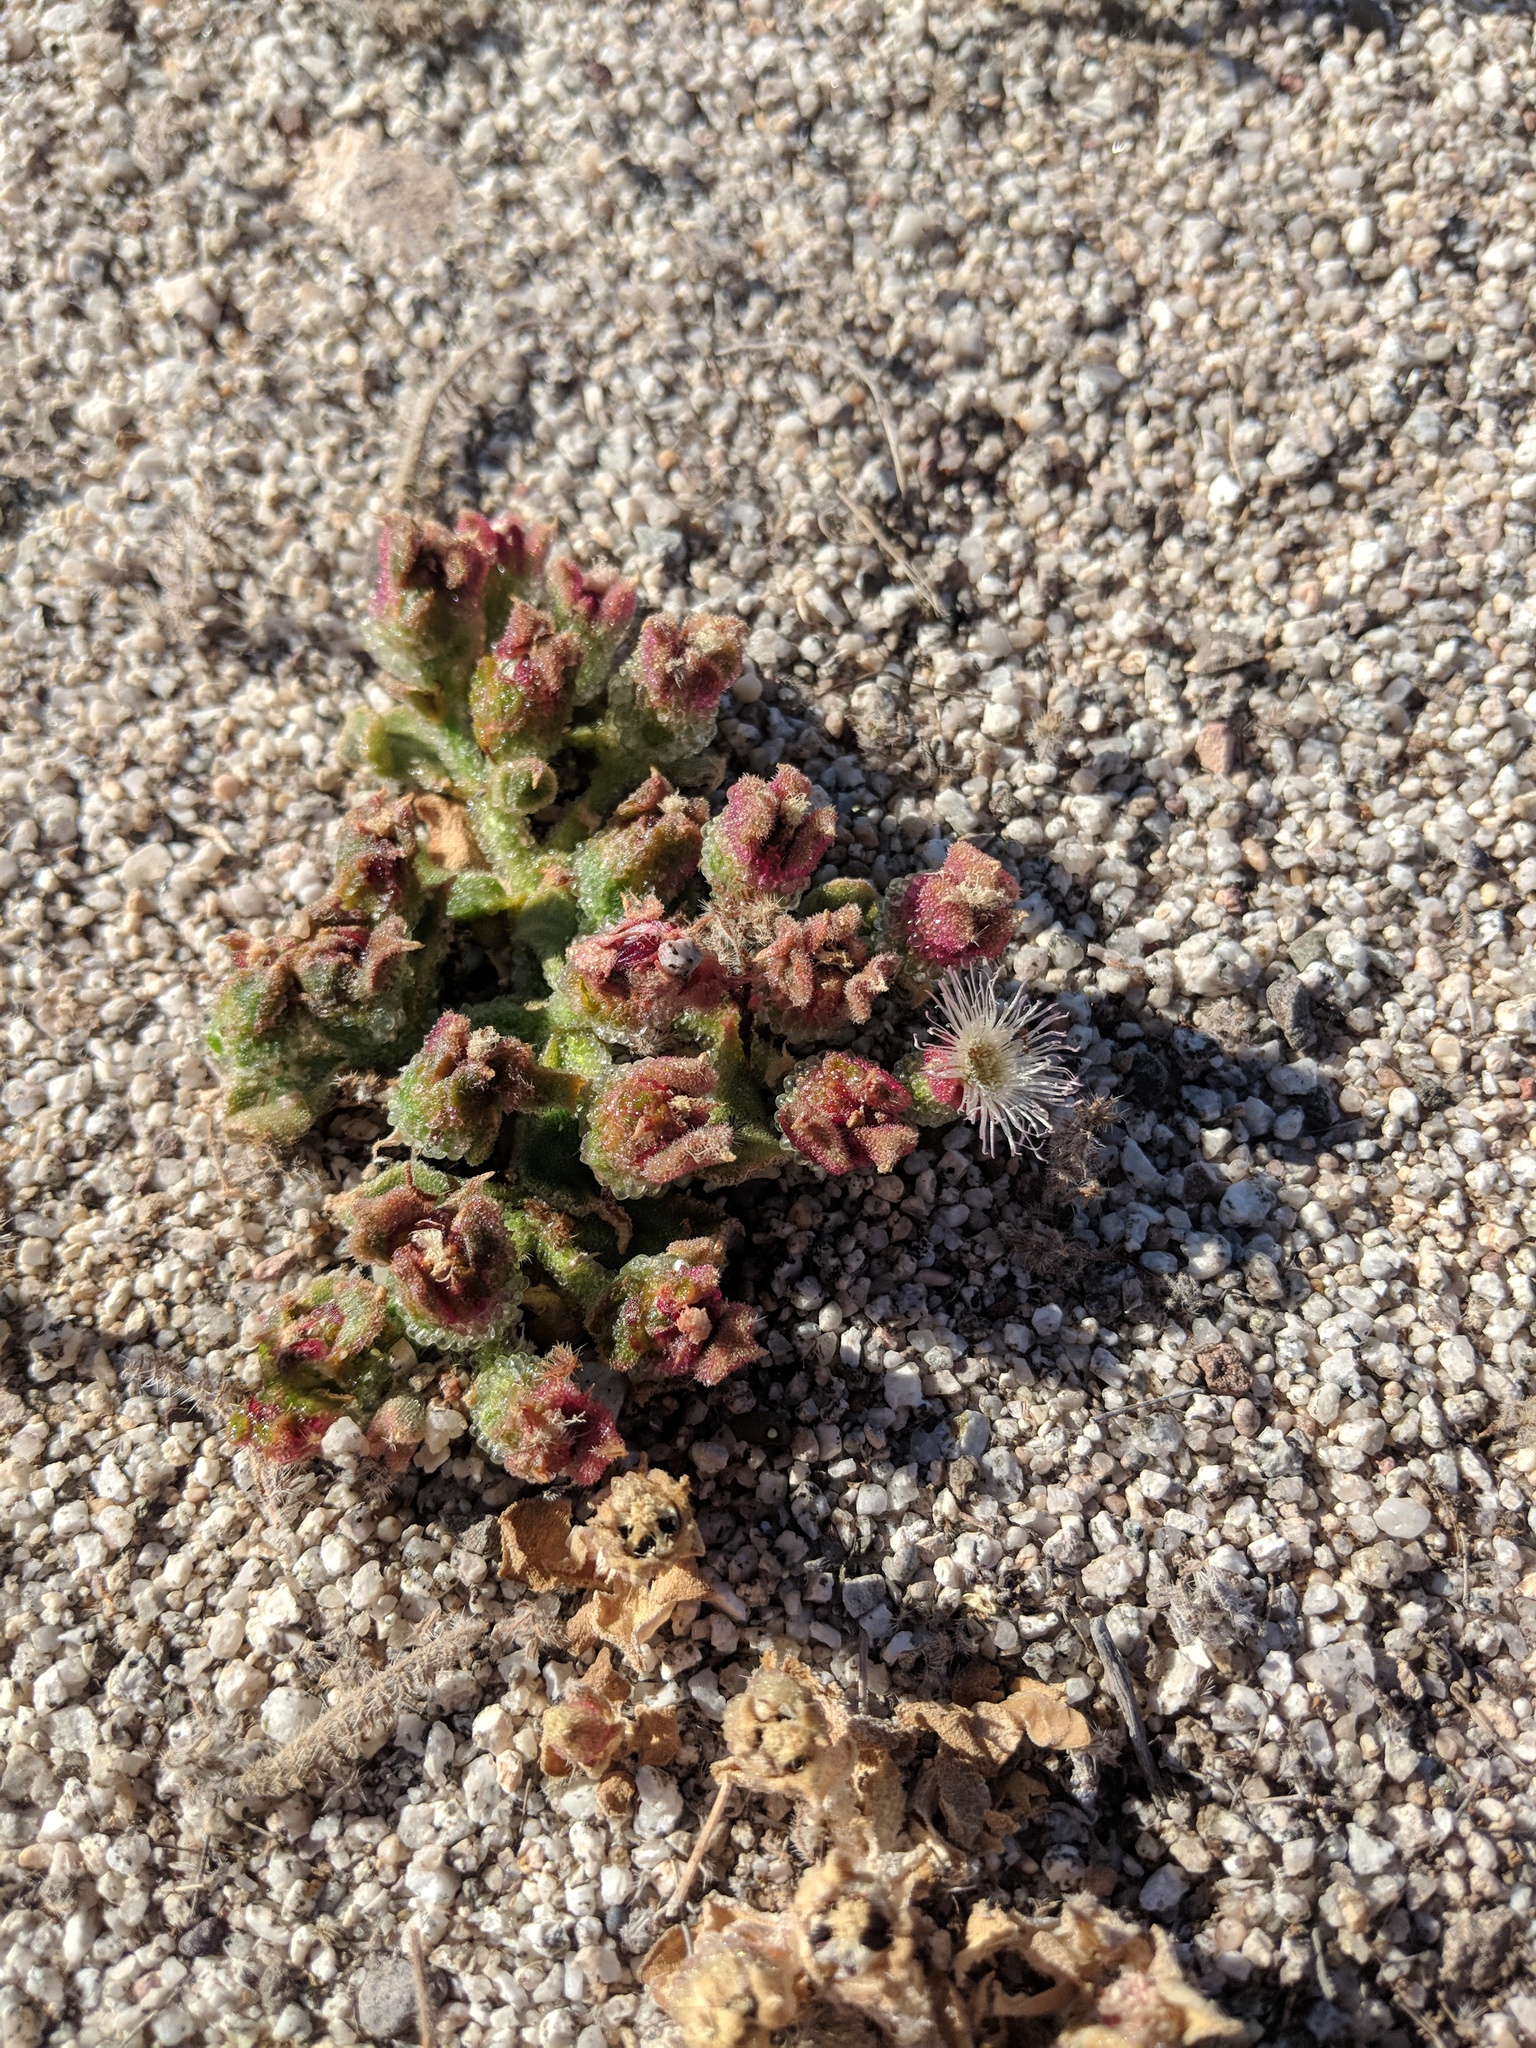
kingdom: Plantae
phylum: Tracheophyta
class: Magnoliopsida
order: Caryophyllales
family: Aizoaceae
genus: Mesembryanthemum
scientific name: Mesembryanthemum crystallinum
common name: Common iceplant
